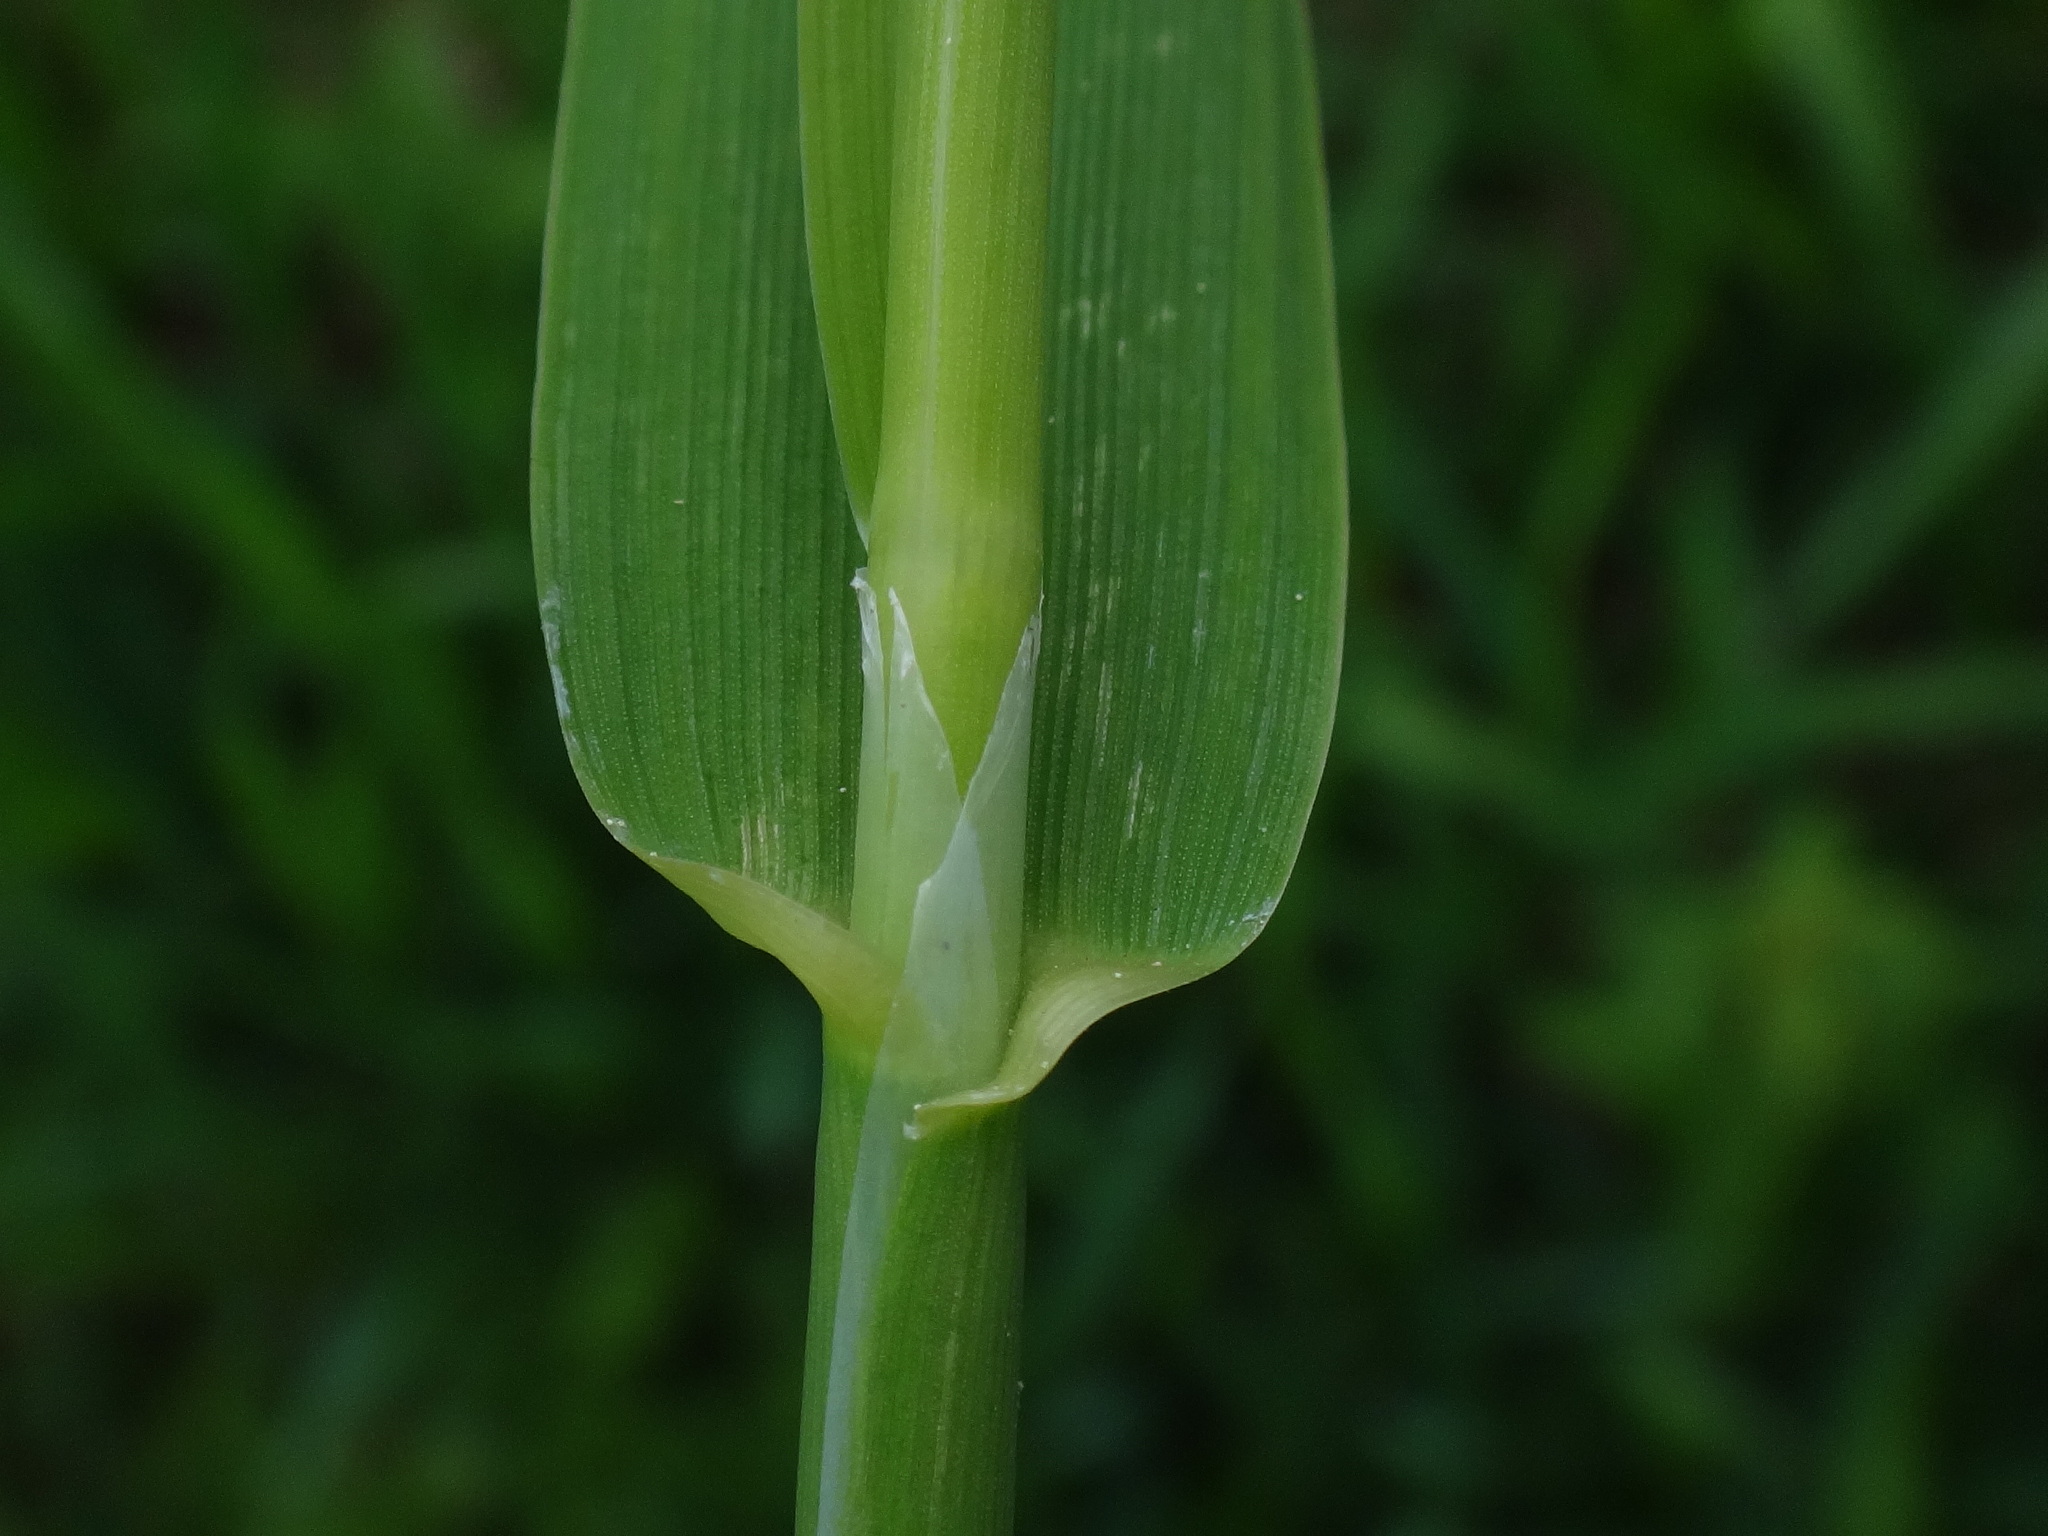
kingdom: Plantae
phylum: Tracheophyta
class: Liliopsida
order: Poales
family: Poaceae
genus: Phalaris
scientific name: Phalaris arundinacea
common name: Reed canary-grass
